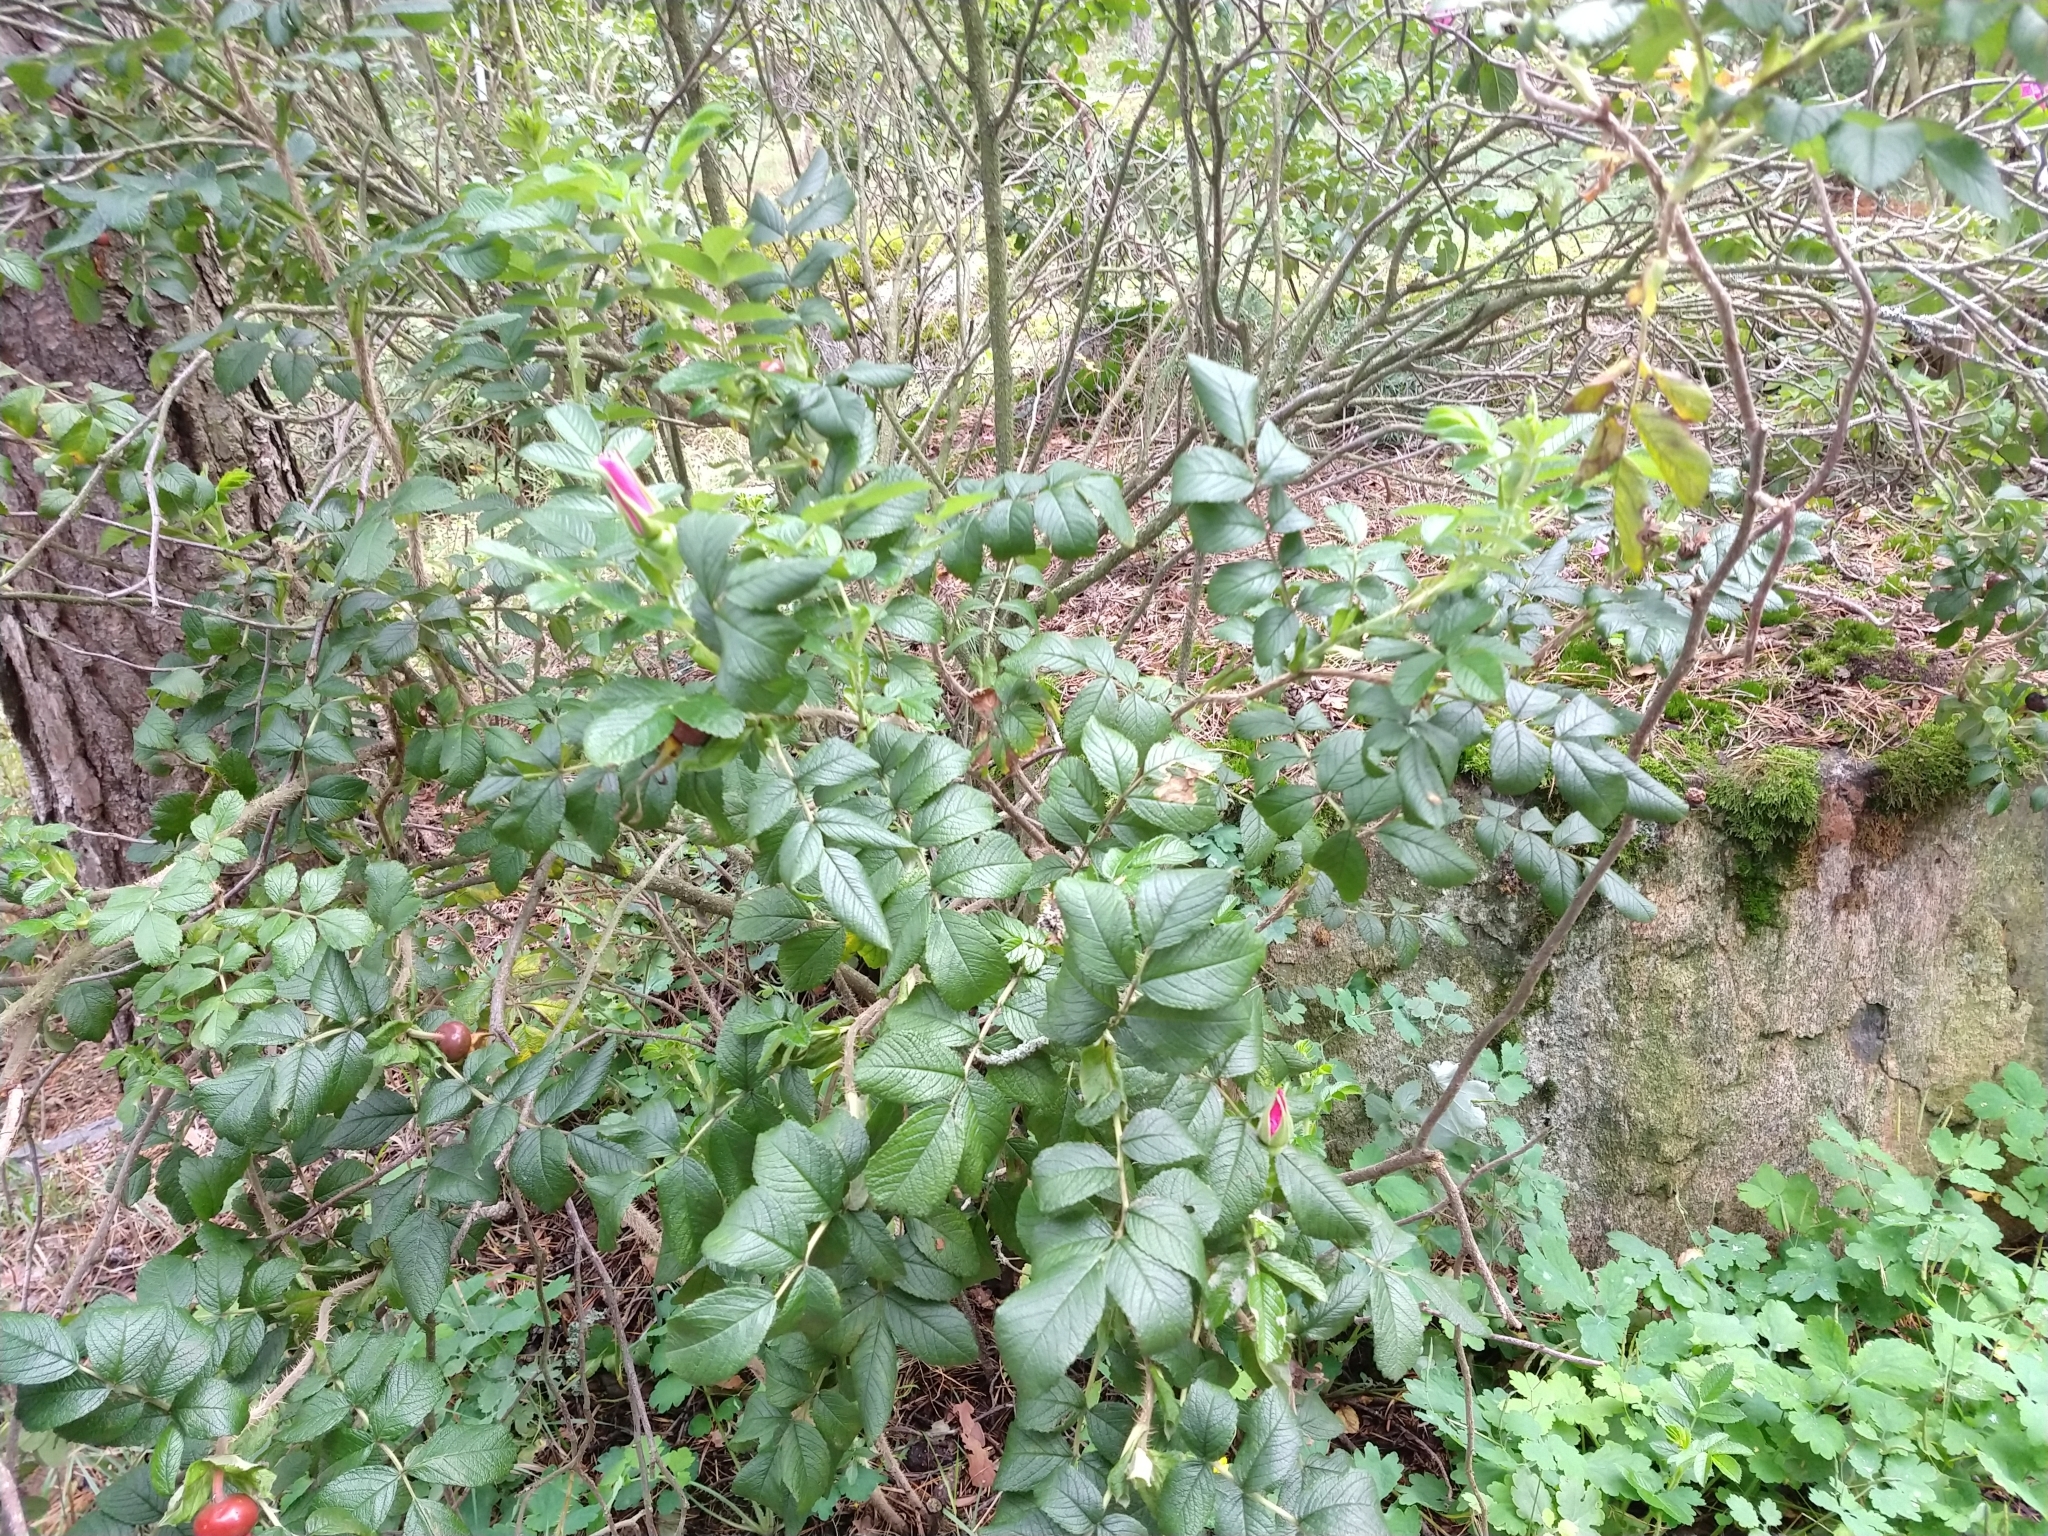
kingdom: Plantae
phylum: Tracheophyta
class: Magnoliopsida
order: Rosales
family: Rosaceae
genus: Rosa
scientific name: Rosa rugosa
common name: Japanese rose
